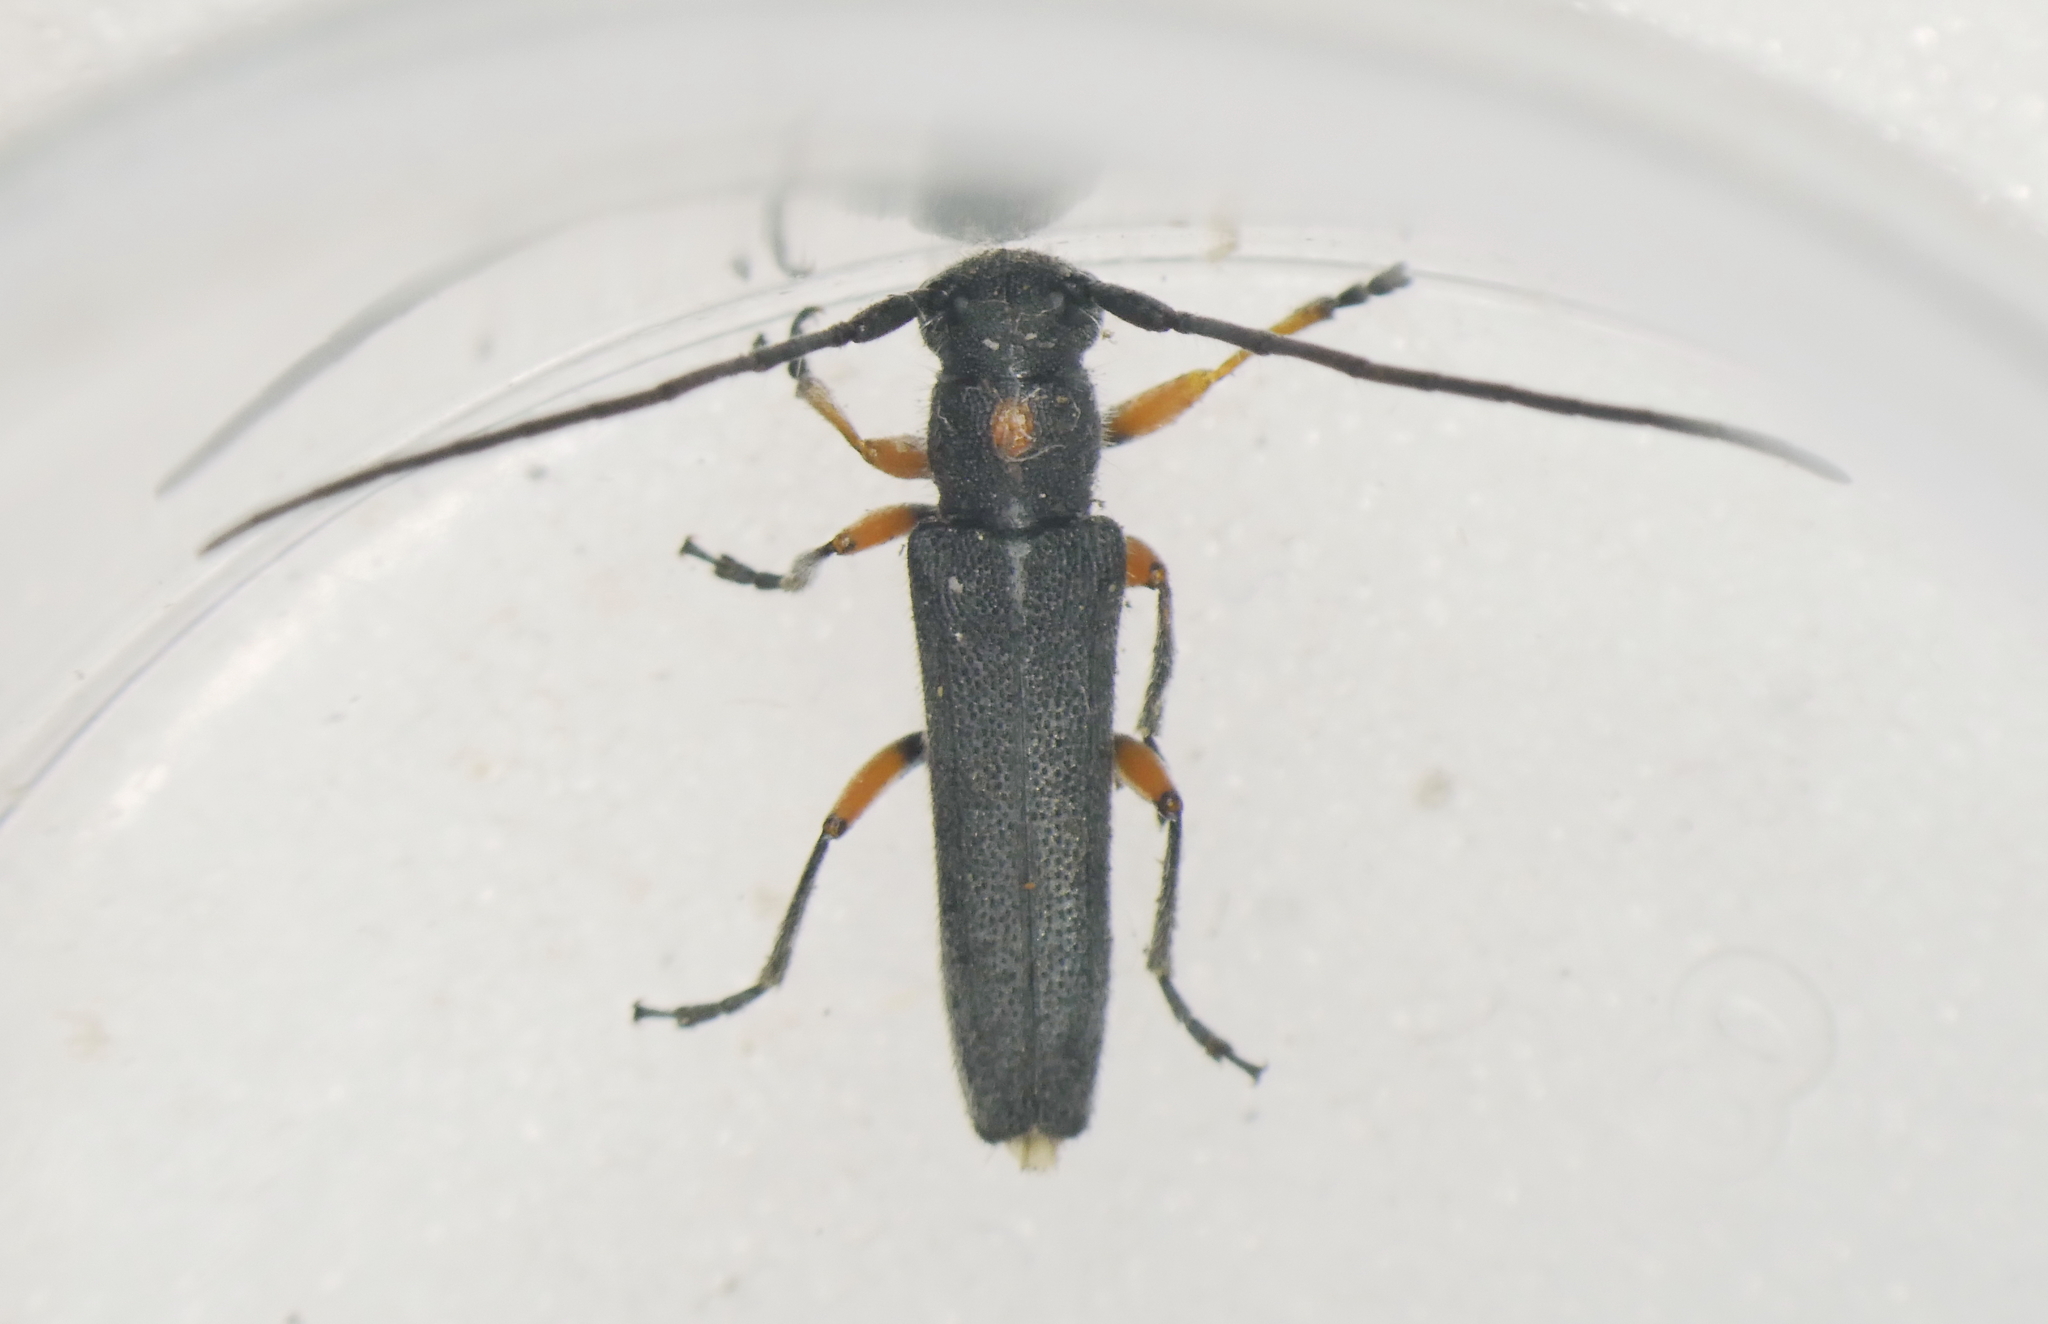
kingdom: Animalia
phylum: Arthropoda
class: Insecta
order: Coleoptera
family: Cerambycidae
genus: Phytoecia
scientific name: Phytoecia virgula
